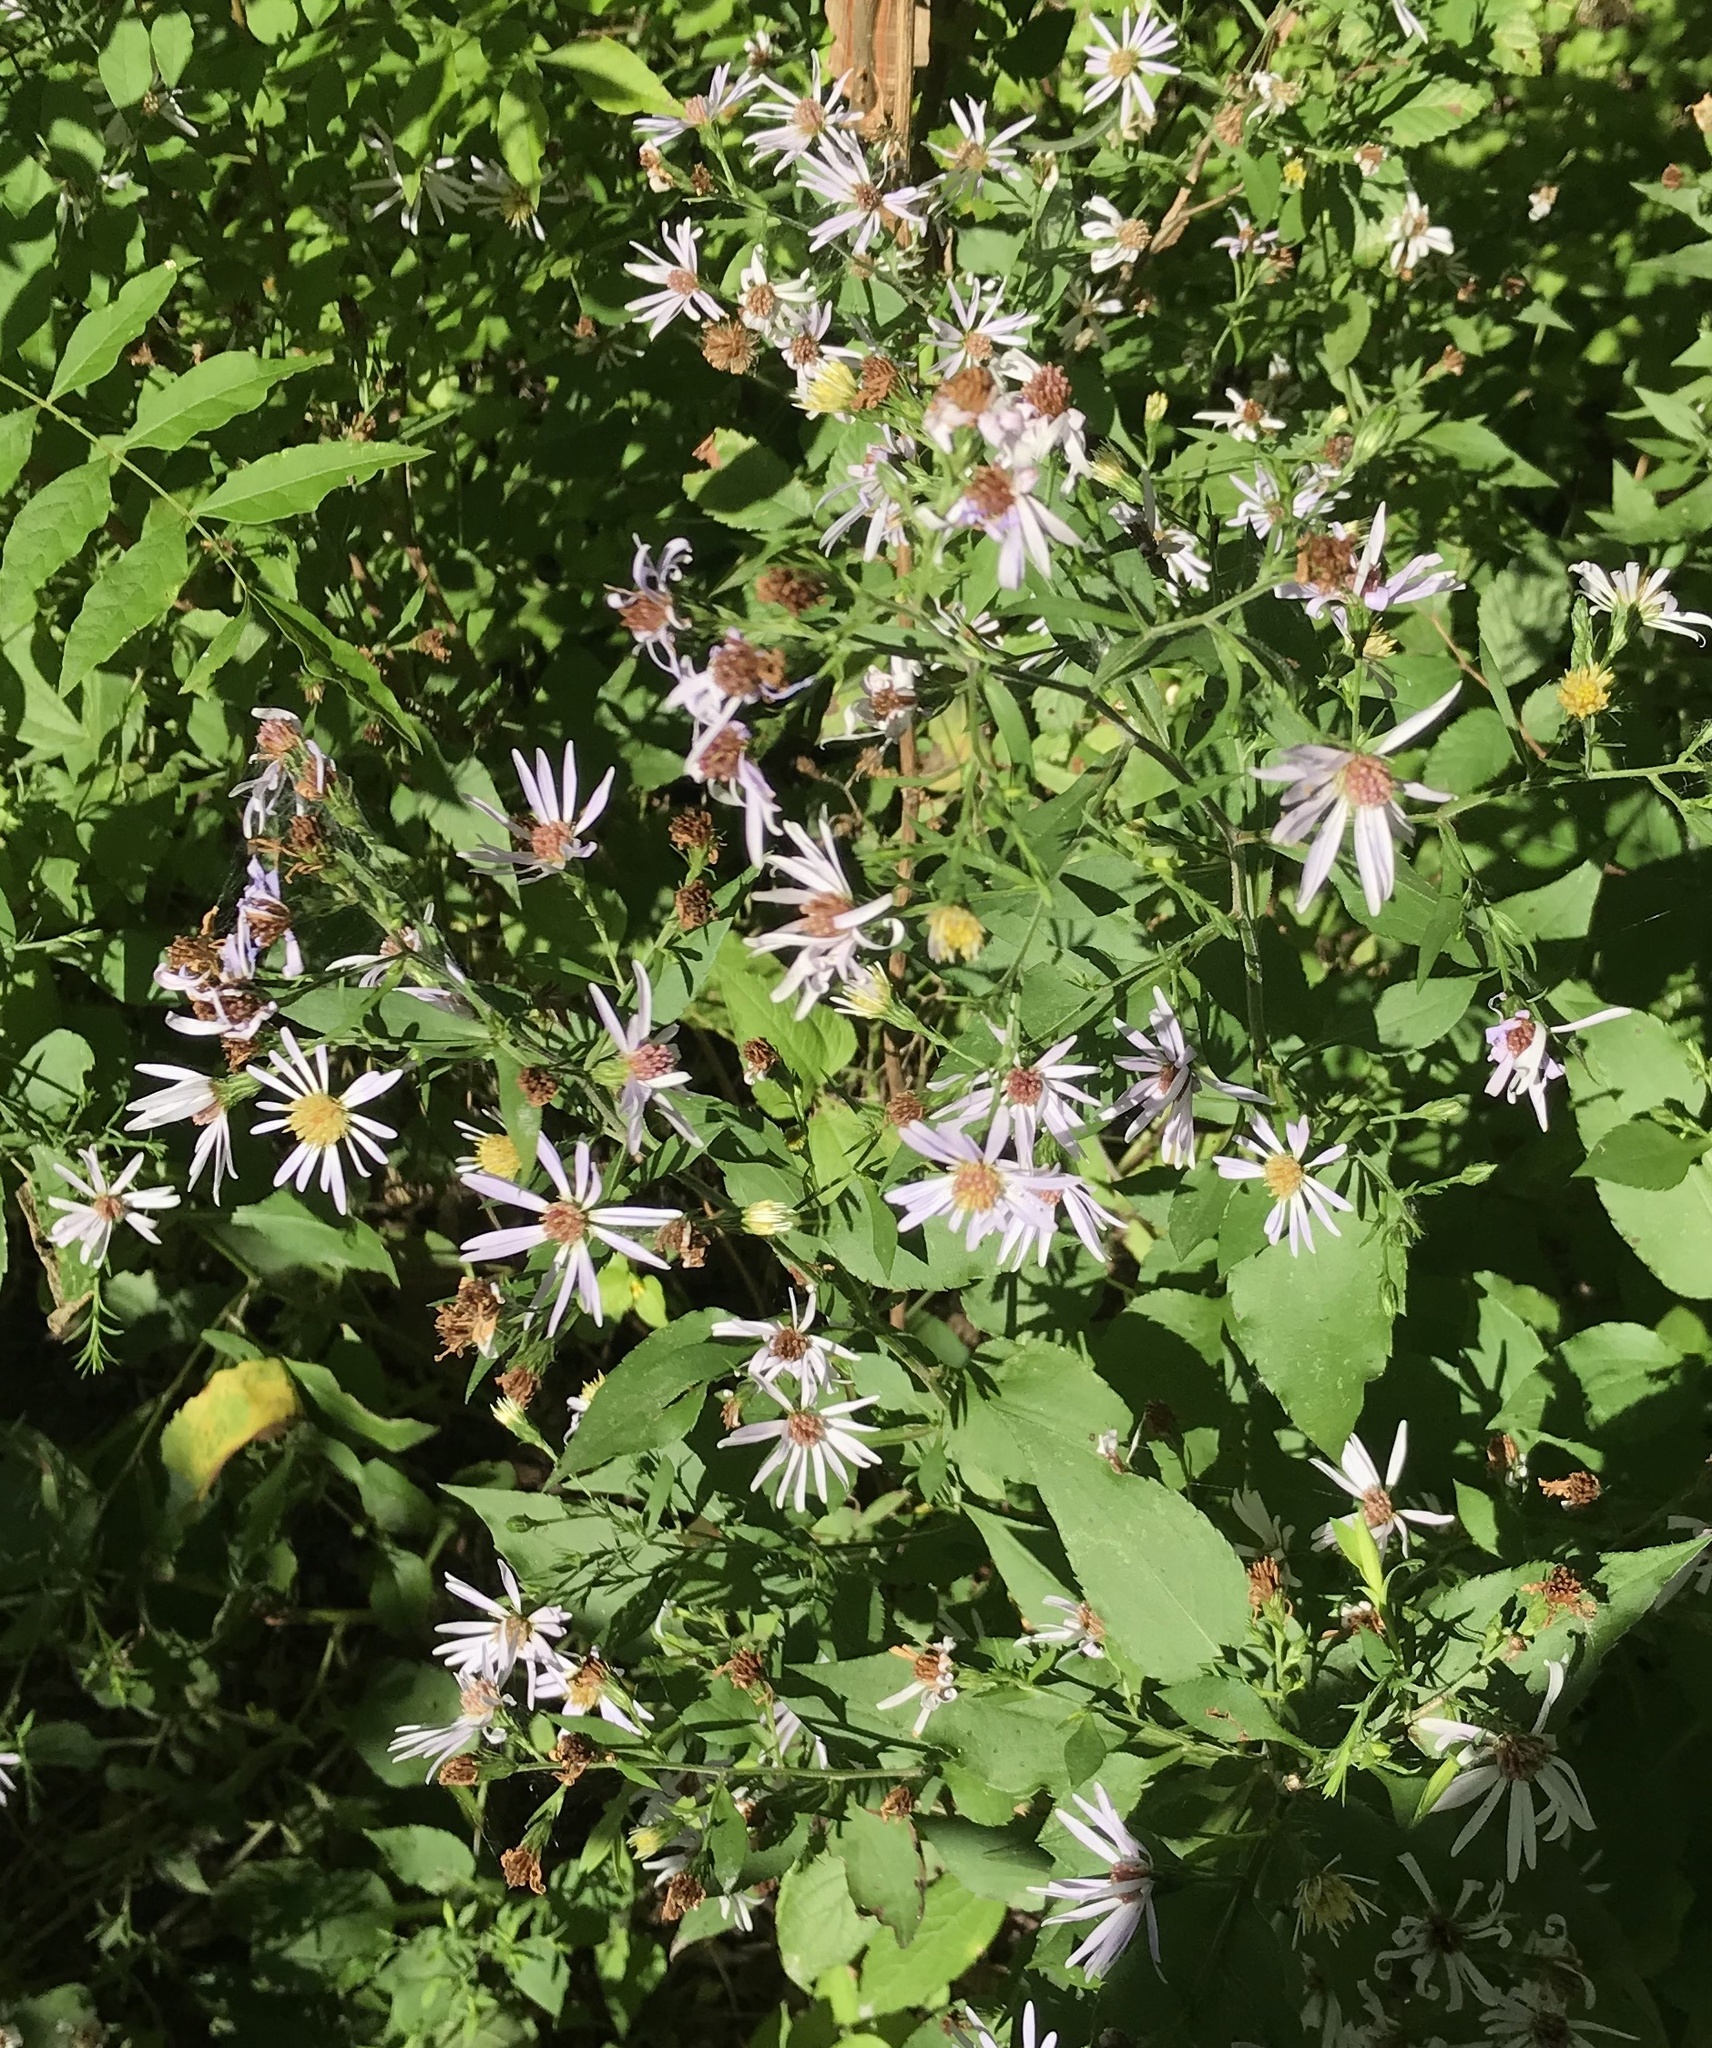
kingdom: Plantae
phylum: Tracheophyta
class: Magnoliopsida
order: Asterales
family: Asteraceae
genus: Symphyotrichum
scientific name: Symphyotrichum drummondii
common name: Drummond's aster
